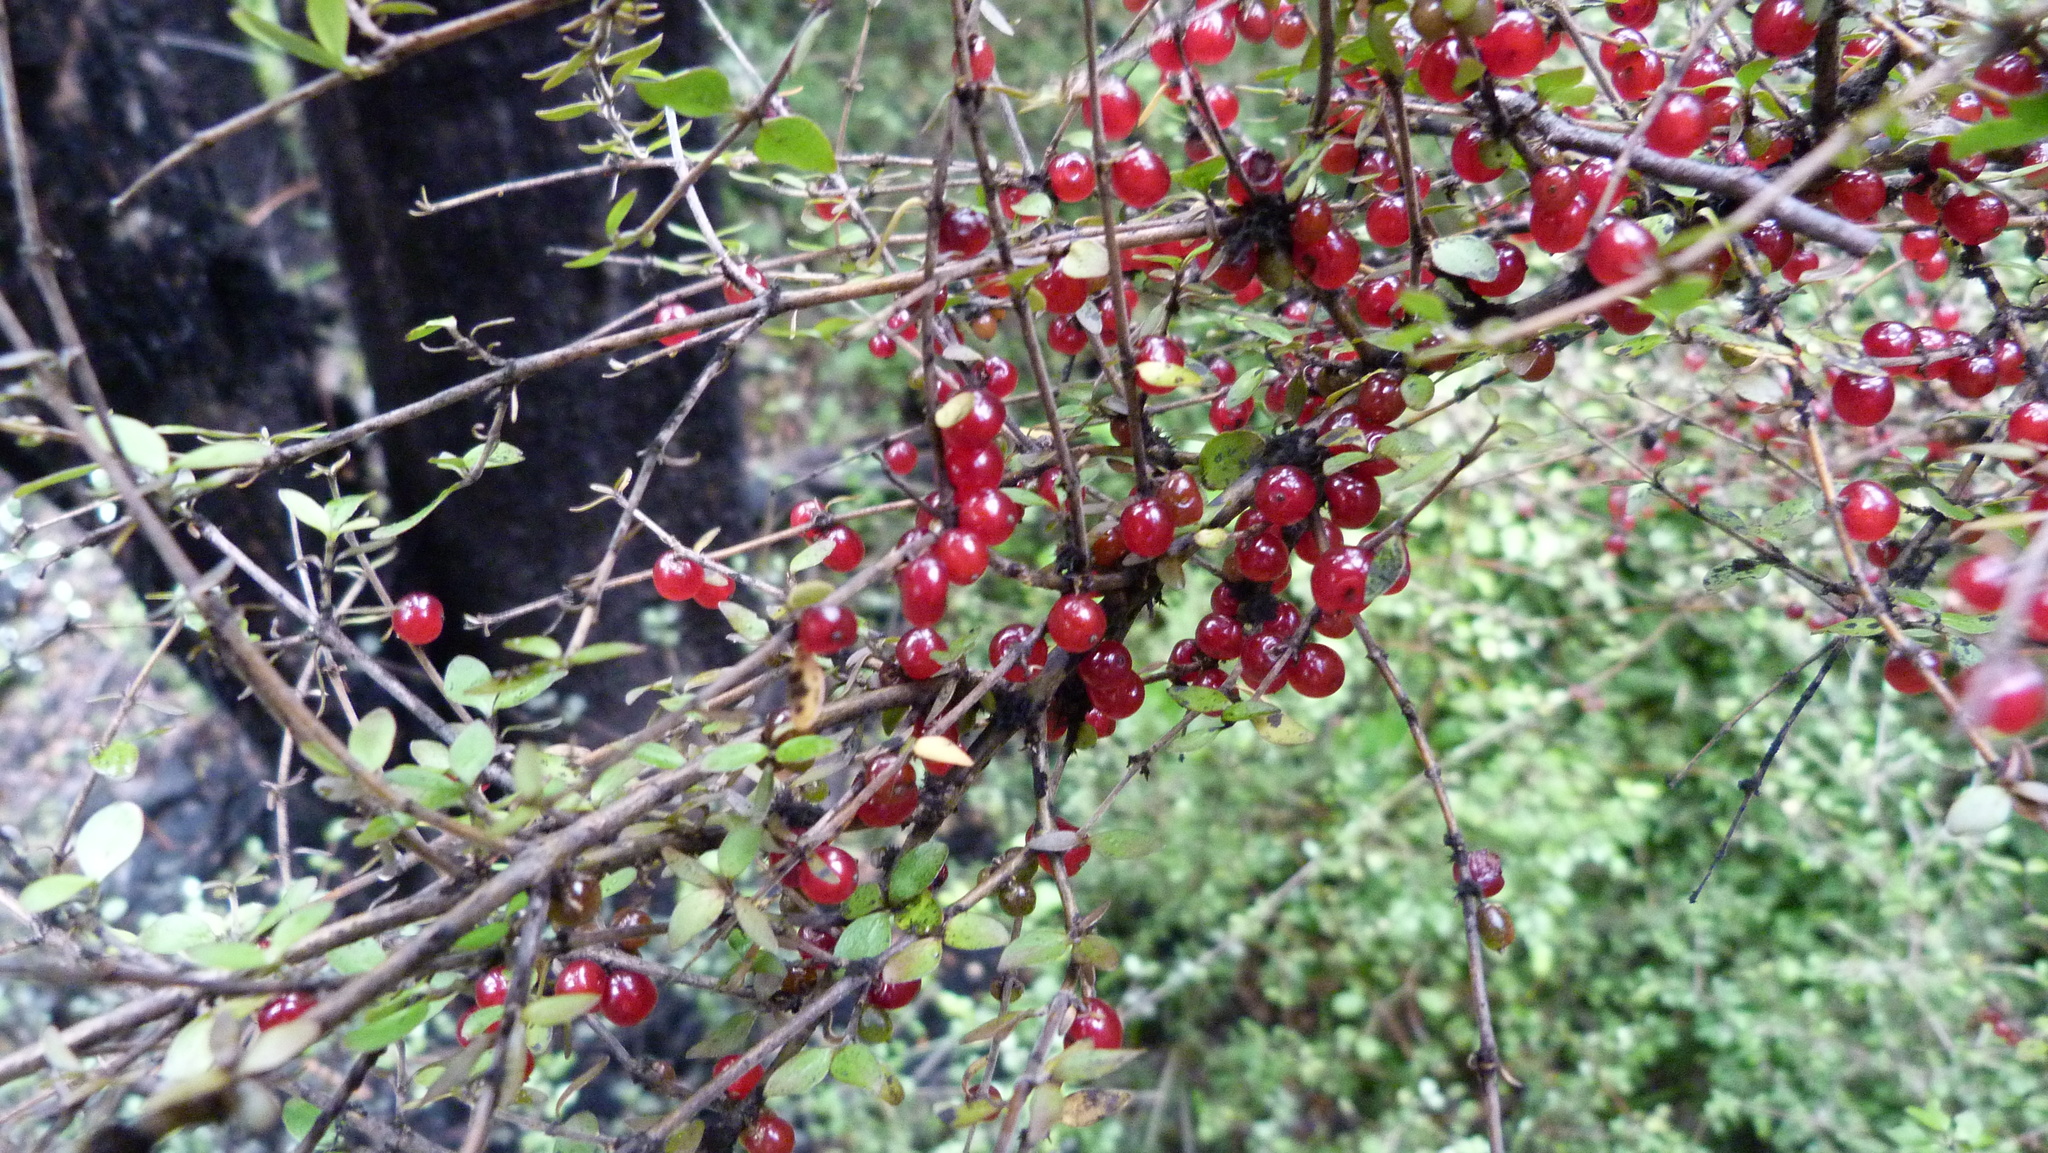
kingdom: Plantae
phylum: Tracheophyta
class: Magnoliopsida
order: Gentianales
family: Rubiaceae
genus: Coprosma
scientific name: Coprosma rhamnoides
